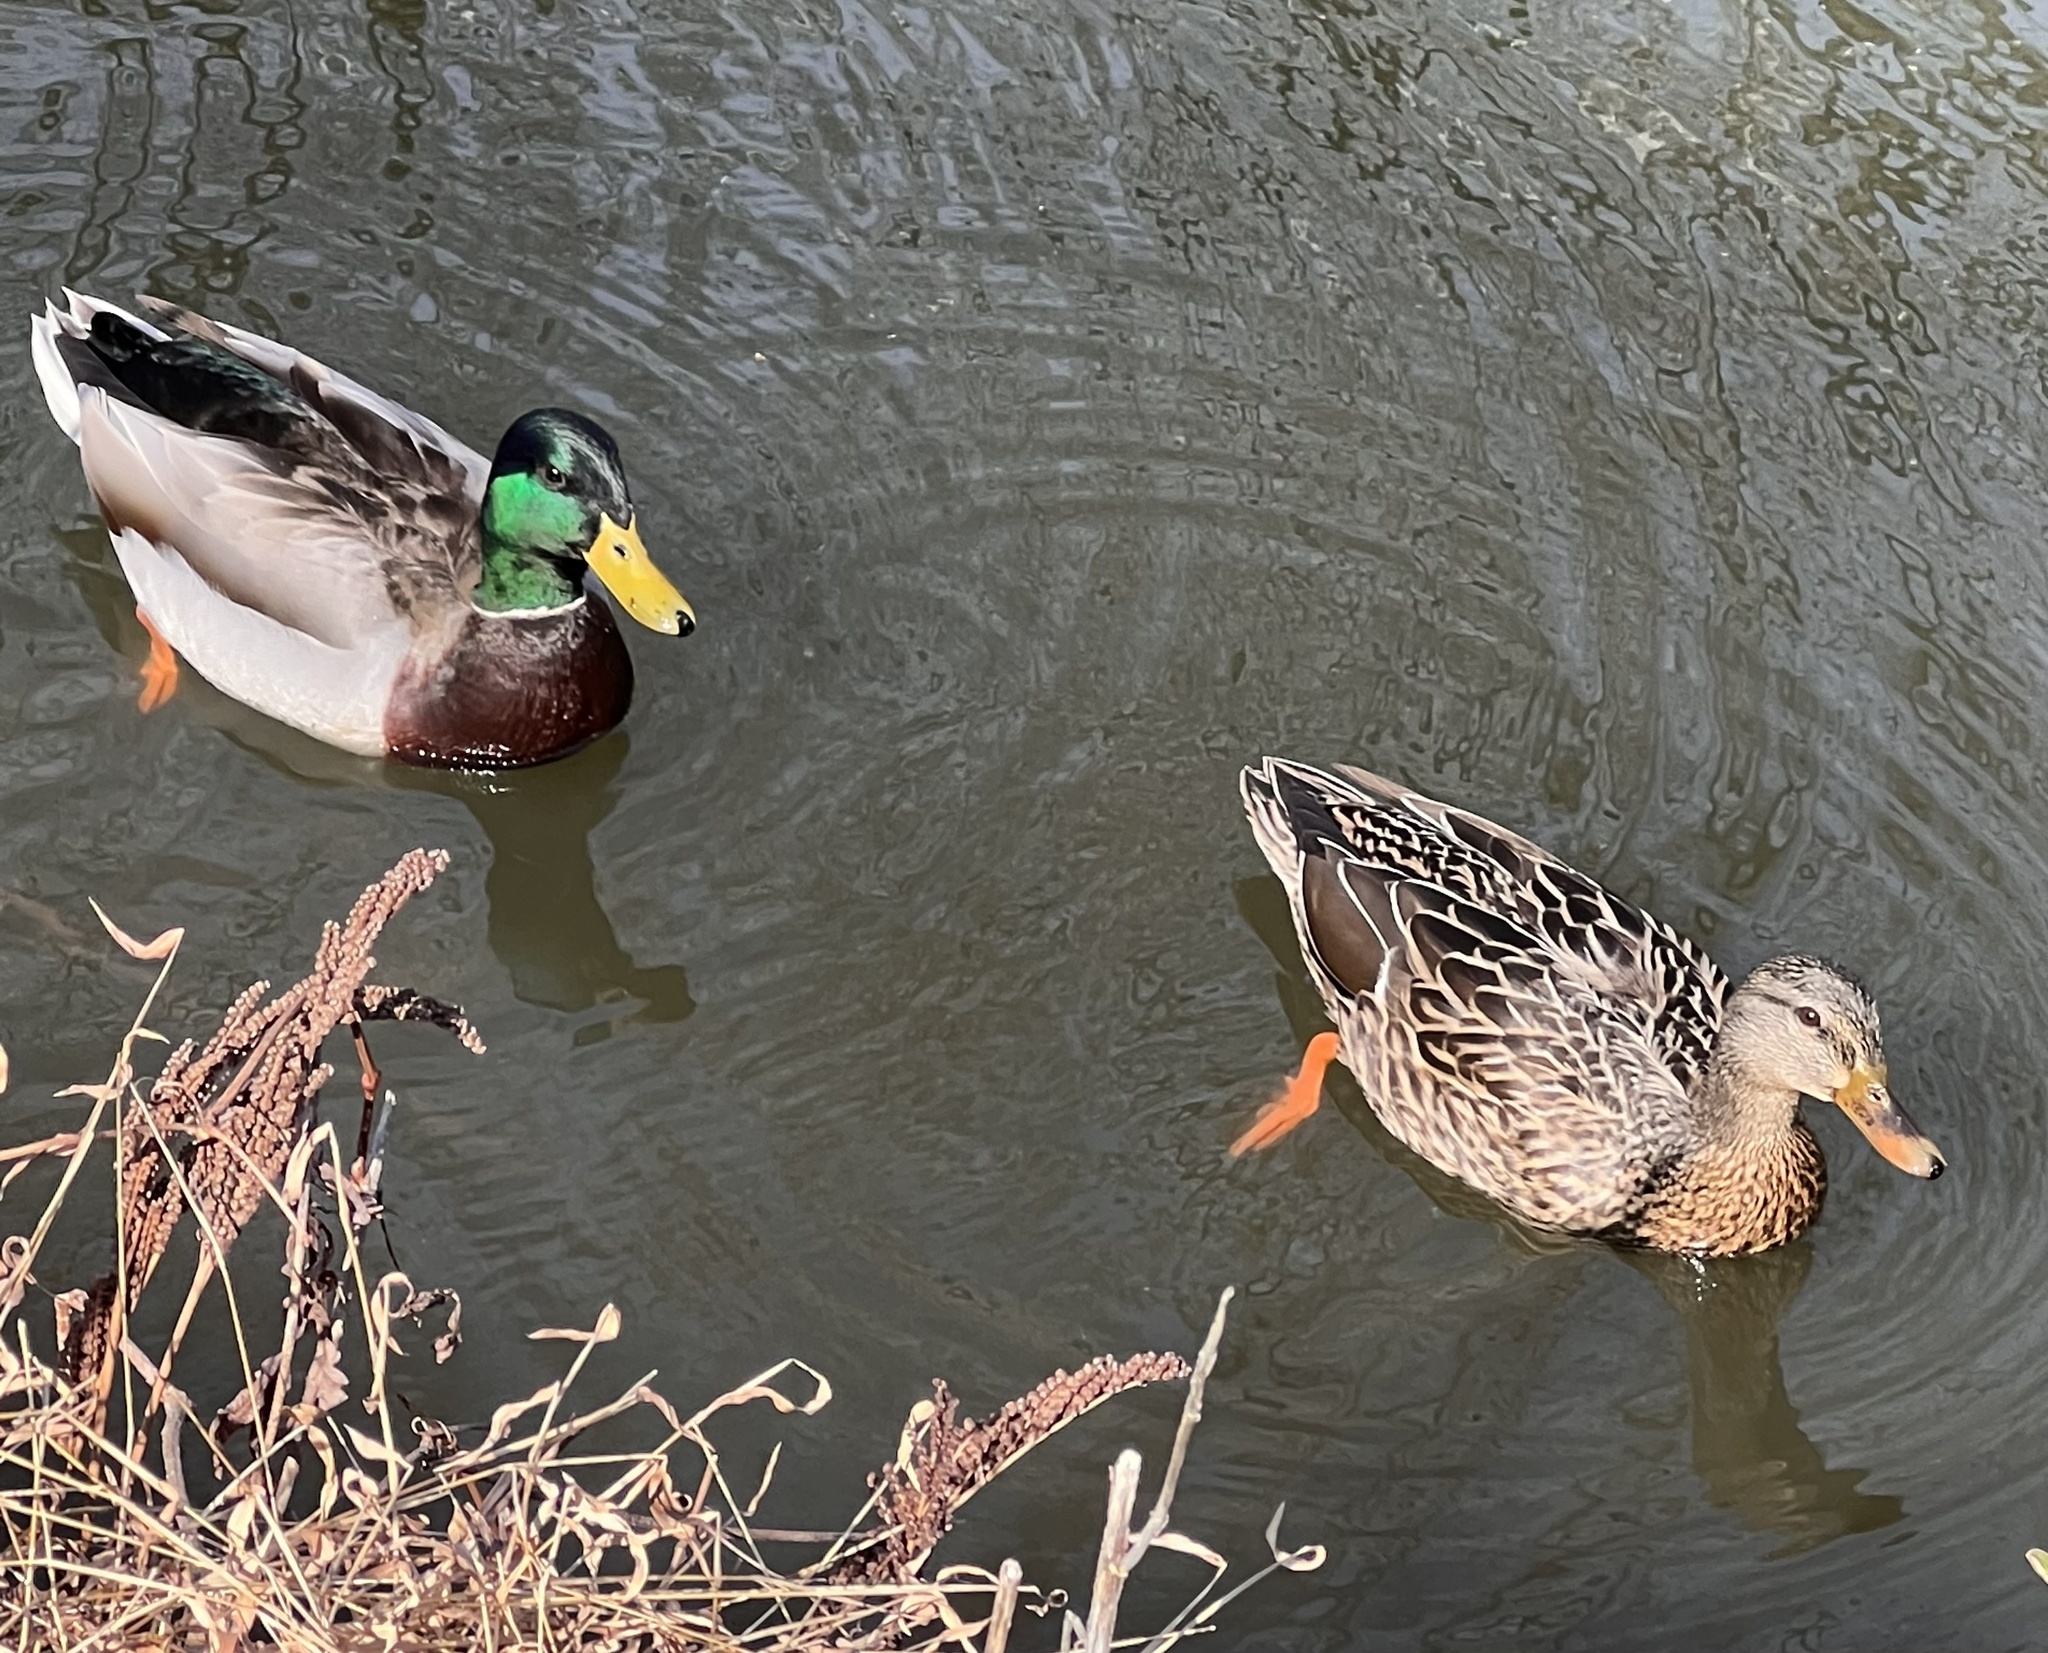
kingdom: Animalia
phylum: Chordata
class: Aves
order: Anseriformes
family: Anatidae
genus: Anas
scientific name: Anas platyrhynchos
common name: Mallard
